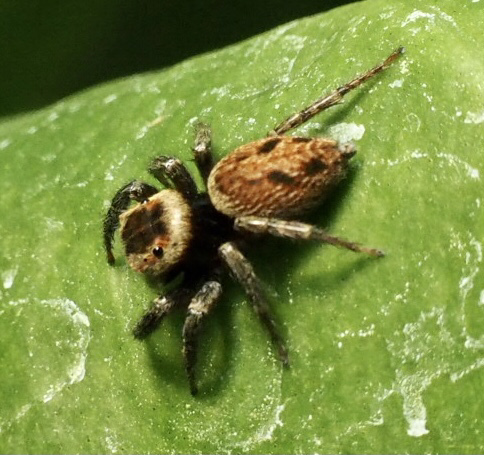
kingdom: Animalia
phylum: Arthropoda
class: Arachnida
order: Araneae
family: Salticidae
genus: Hasarius
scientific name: Hasarius adansoni
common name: Jumping spider
